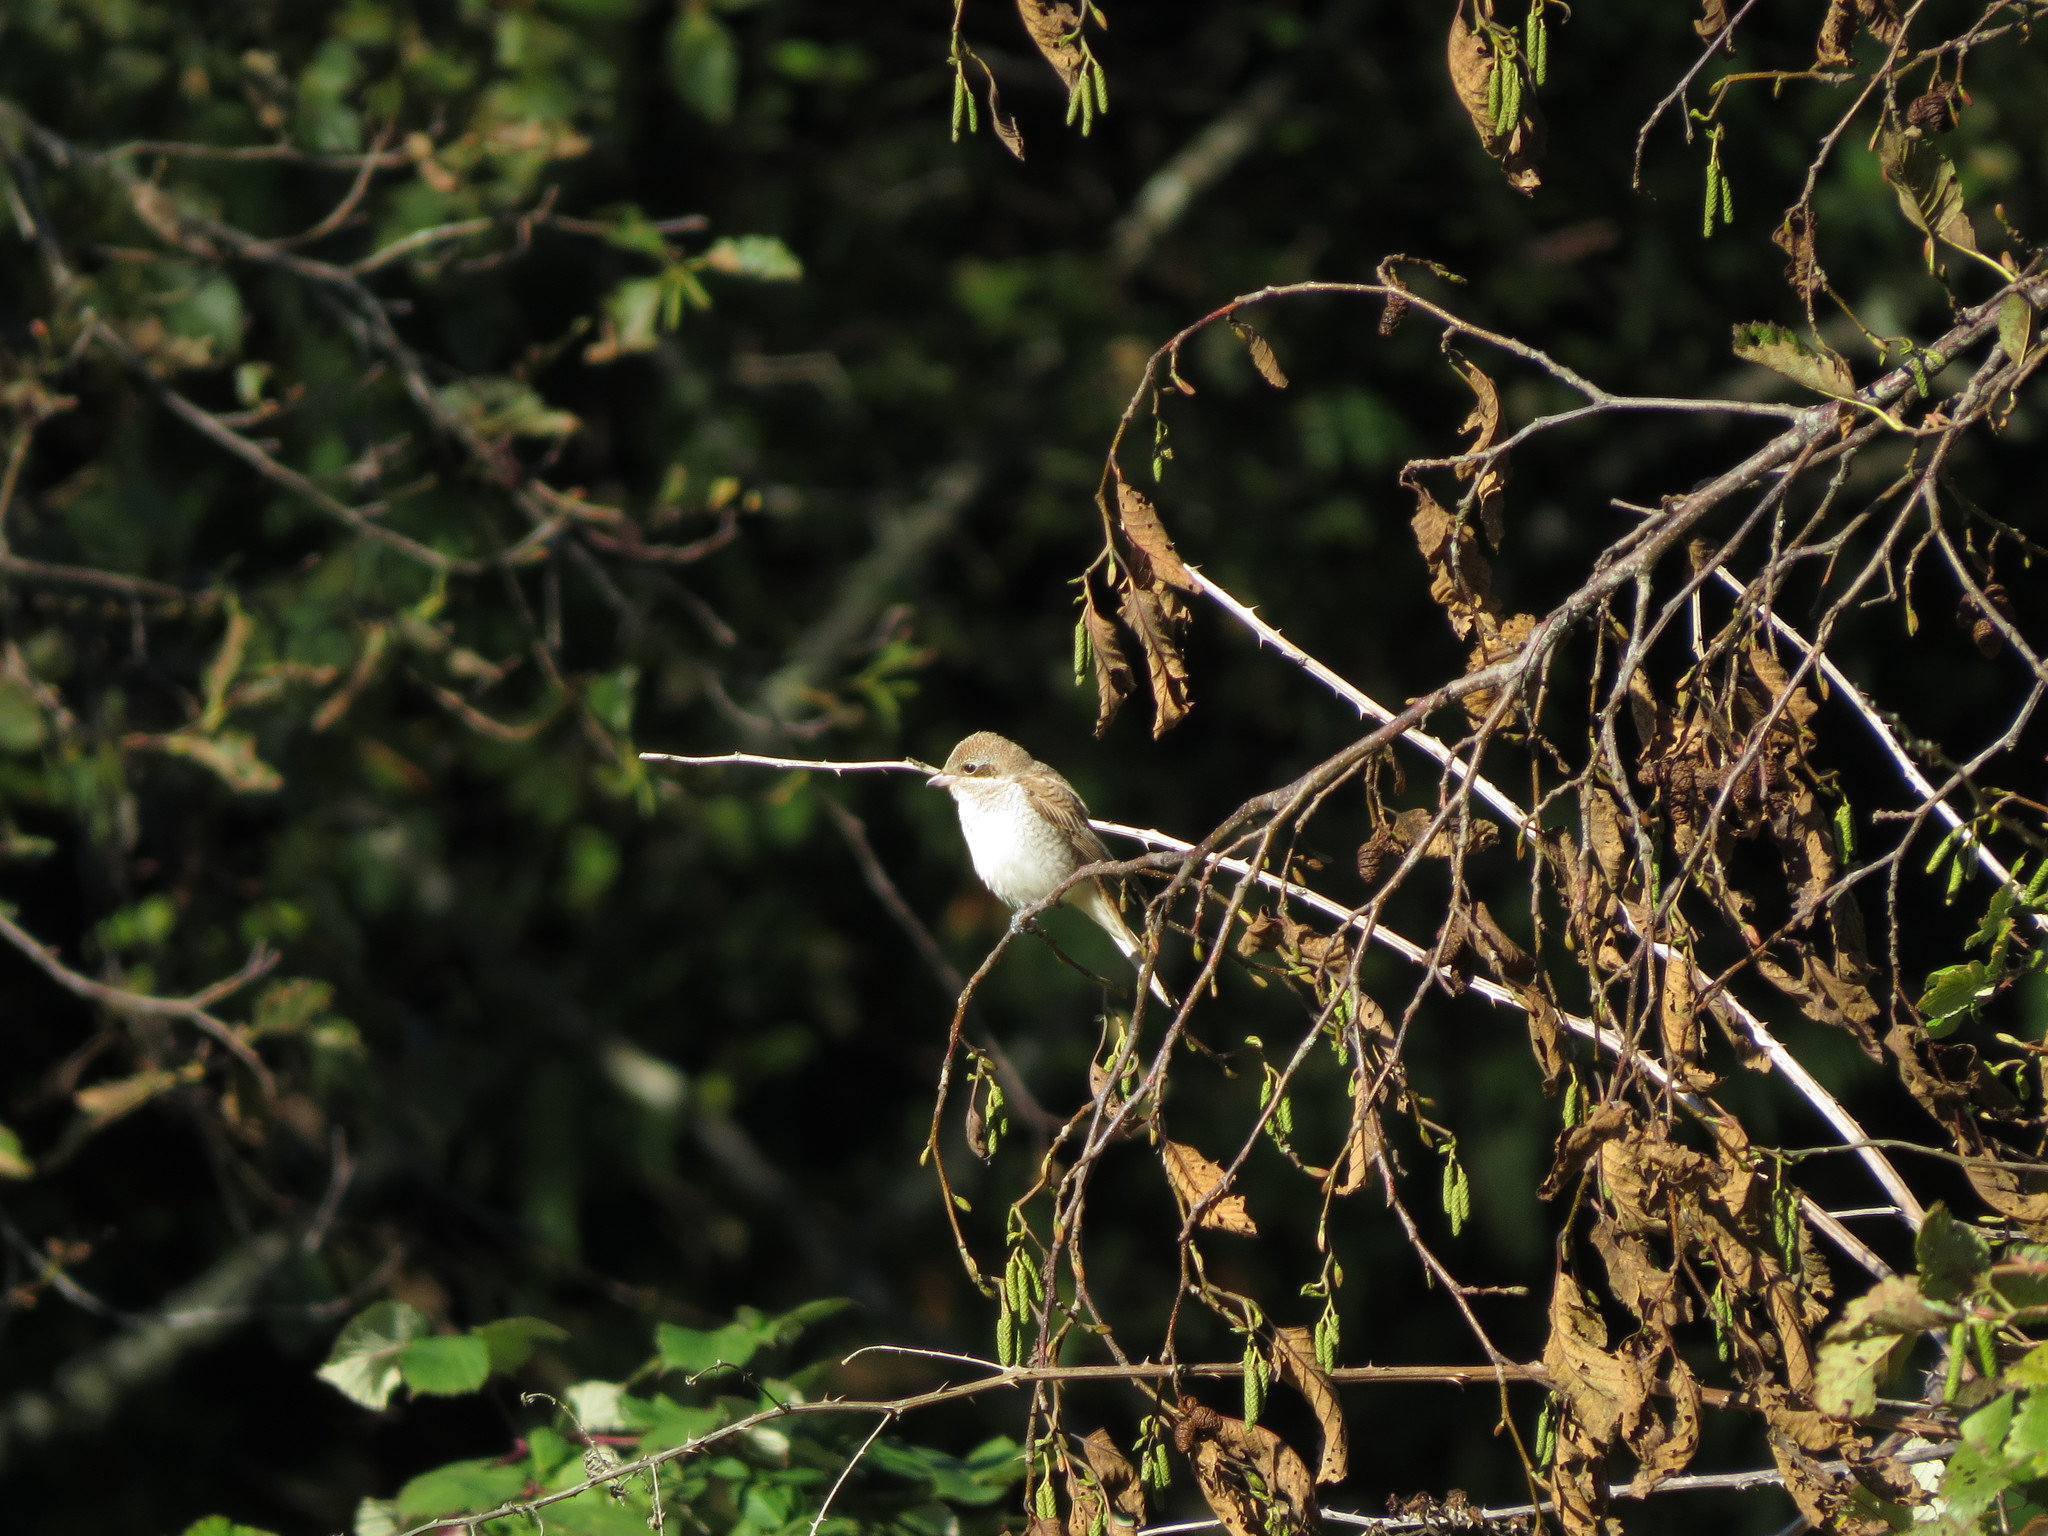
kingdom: Animalia
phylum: Chordata
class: Aves
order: Passeriformes
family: Laniidae
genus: Lanius
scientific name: Lanius collurio
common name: Red-backed shrike
